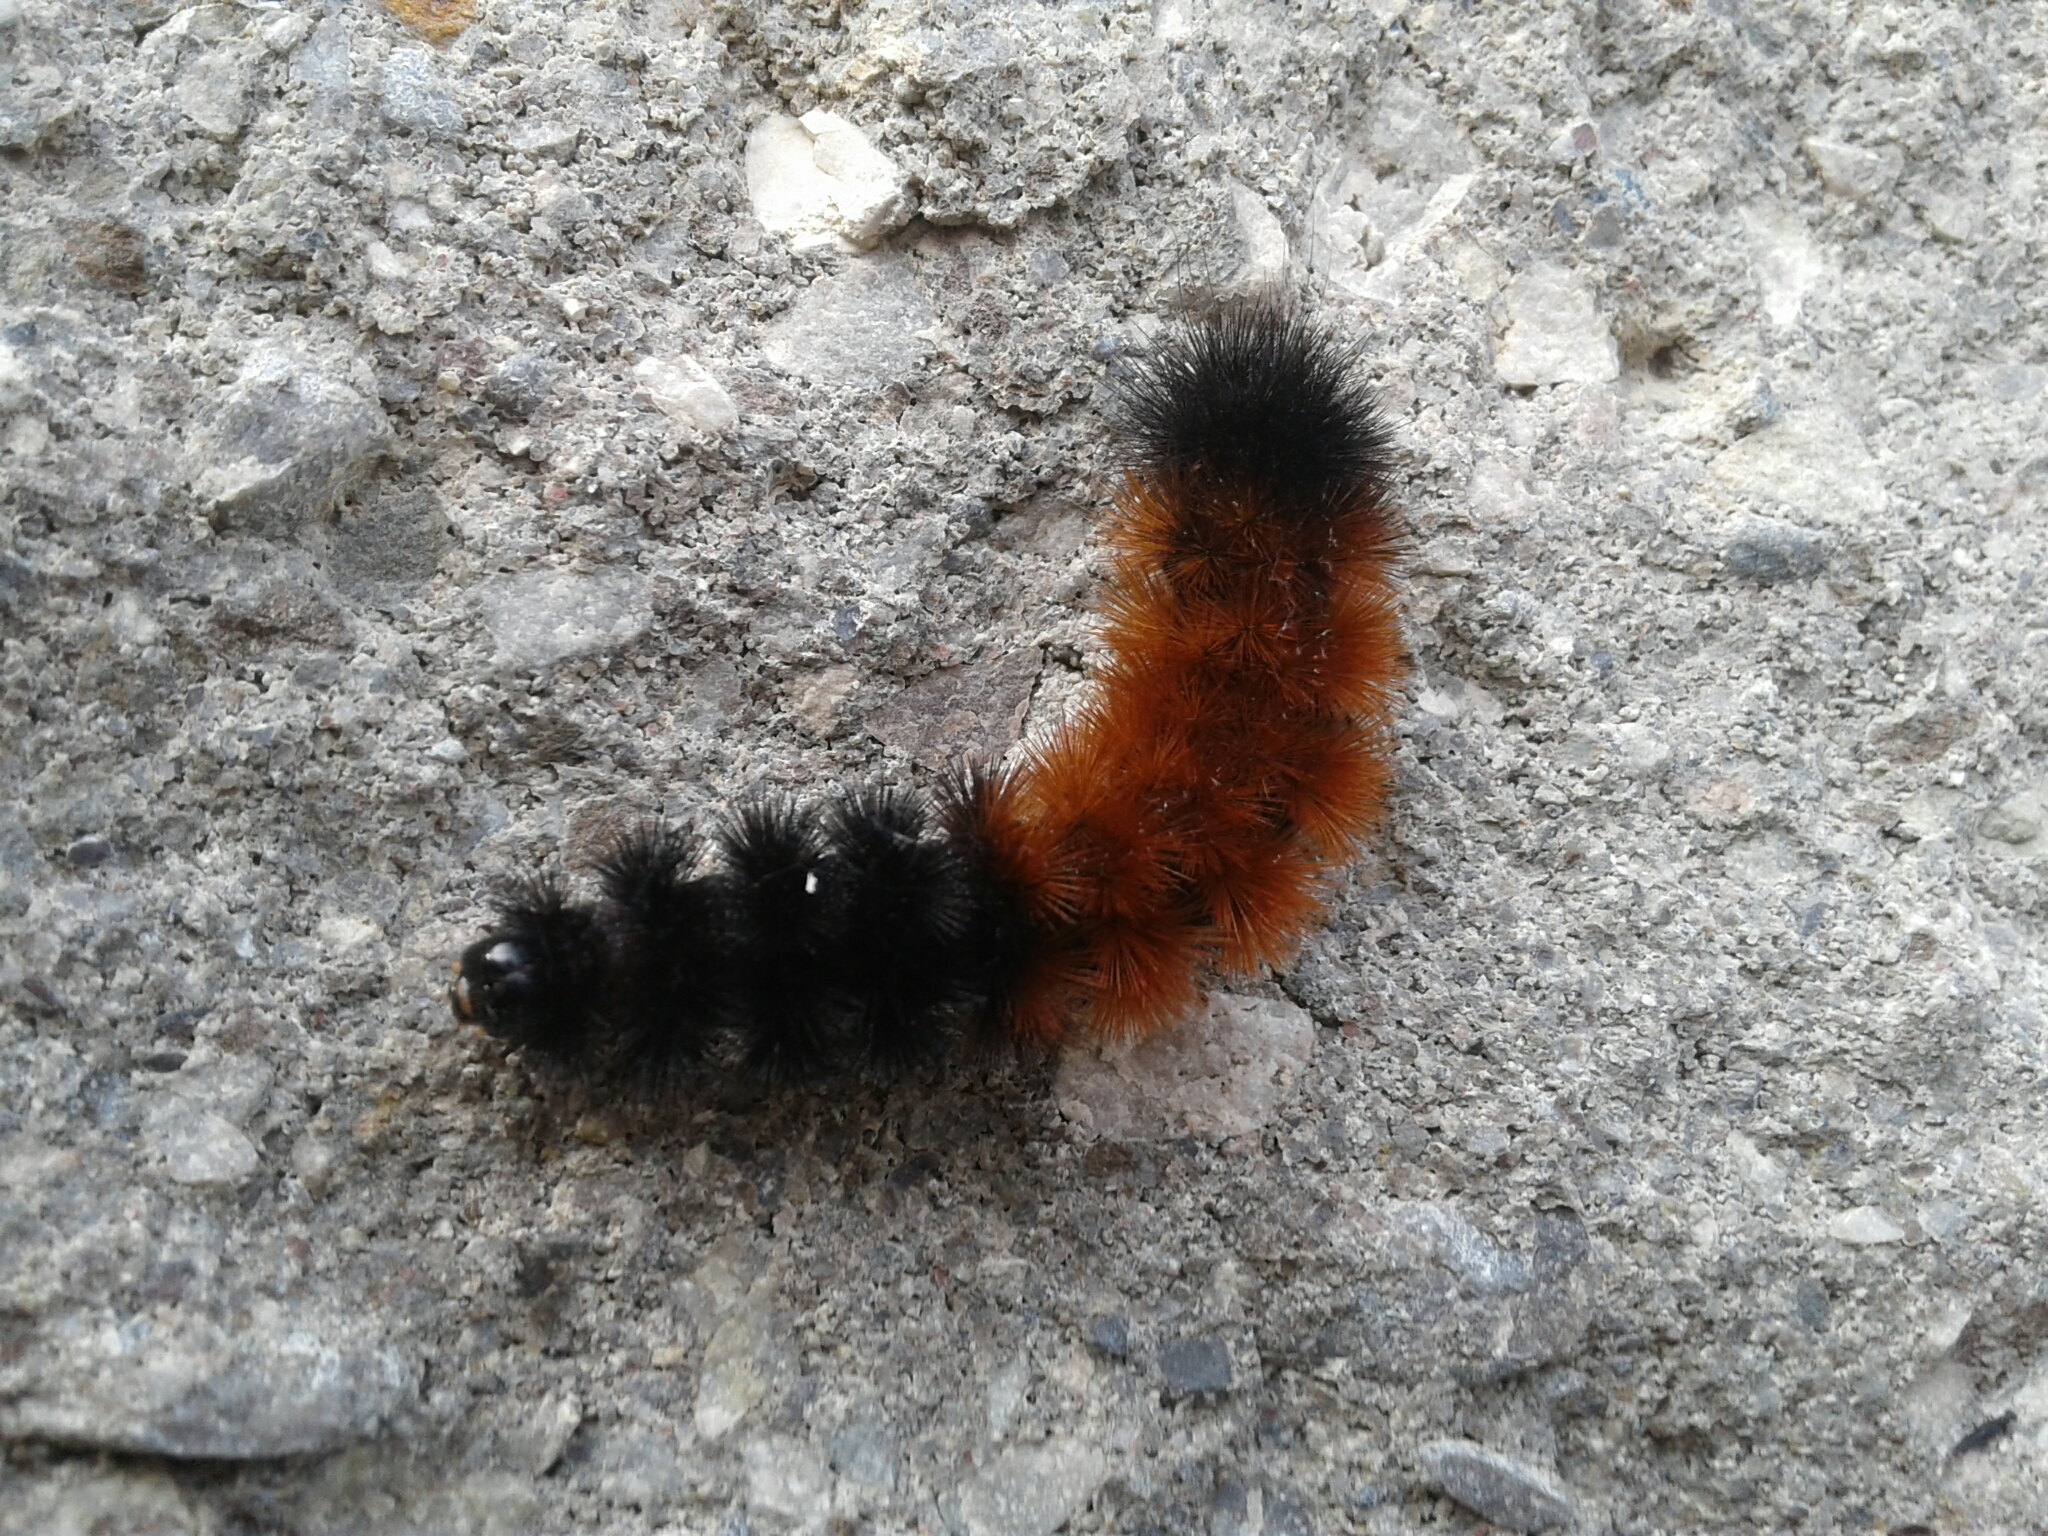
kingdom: Animalia
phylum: Arthropoda
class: Insecta
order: Lepidoptera
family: Erebidae
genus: Pyrrharctia
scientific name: Pyrrharctia isabella
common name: Isabella tiger moth
